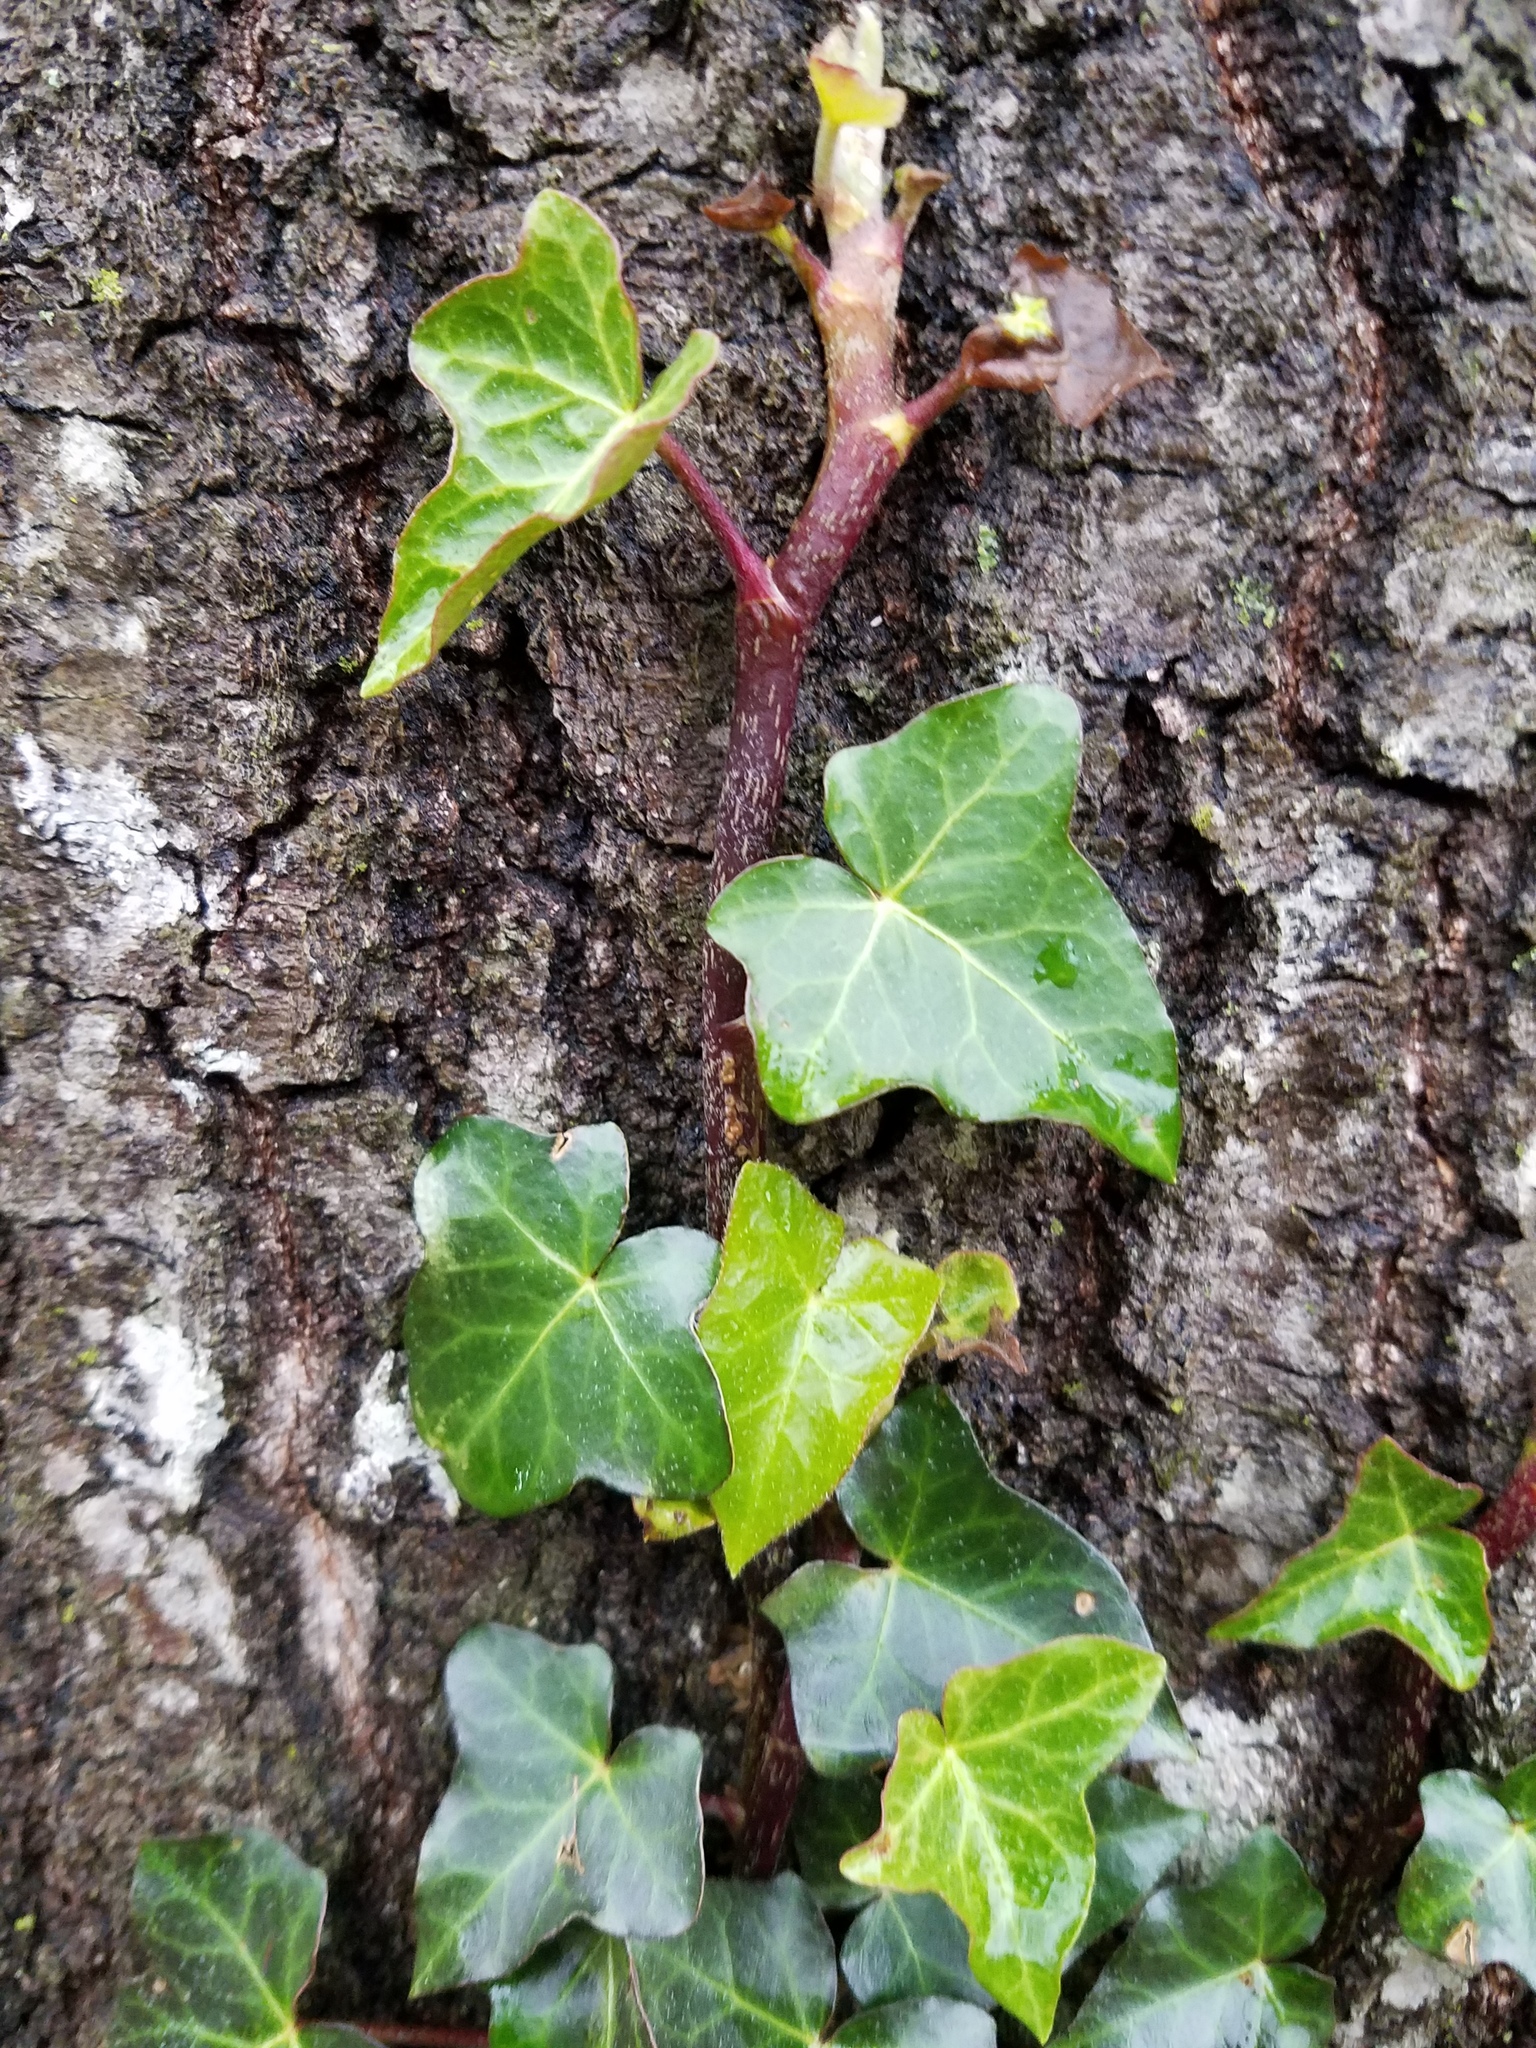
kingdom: Plantae
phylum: Tracheophyta
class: Magnoliopsida
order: Apiales
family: Araliaceae
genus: Hedera
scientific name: Hedera helix
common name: Ivy
